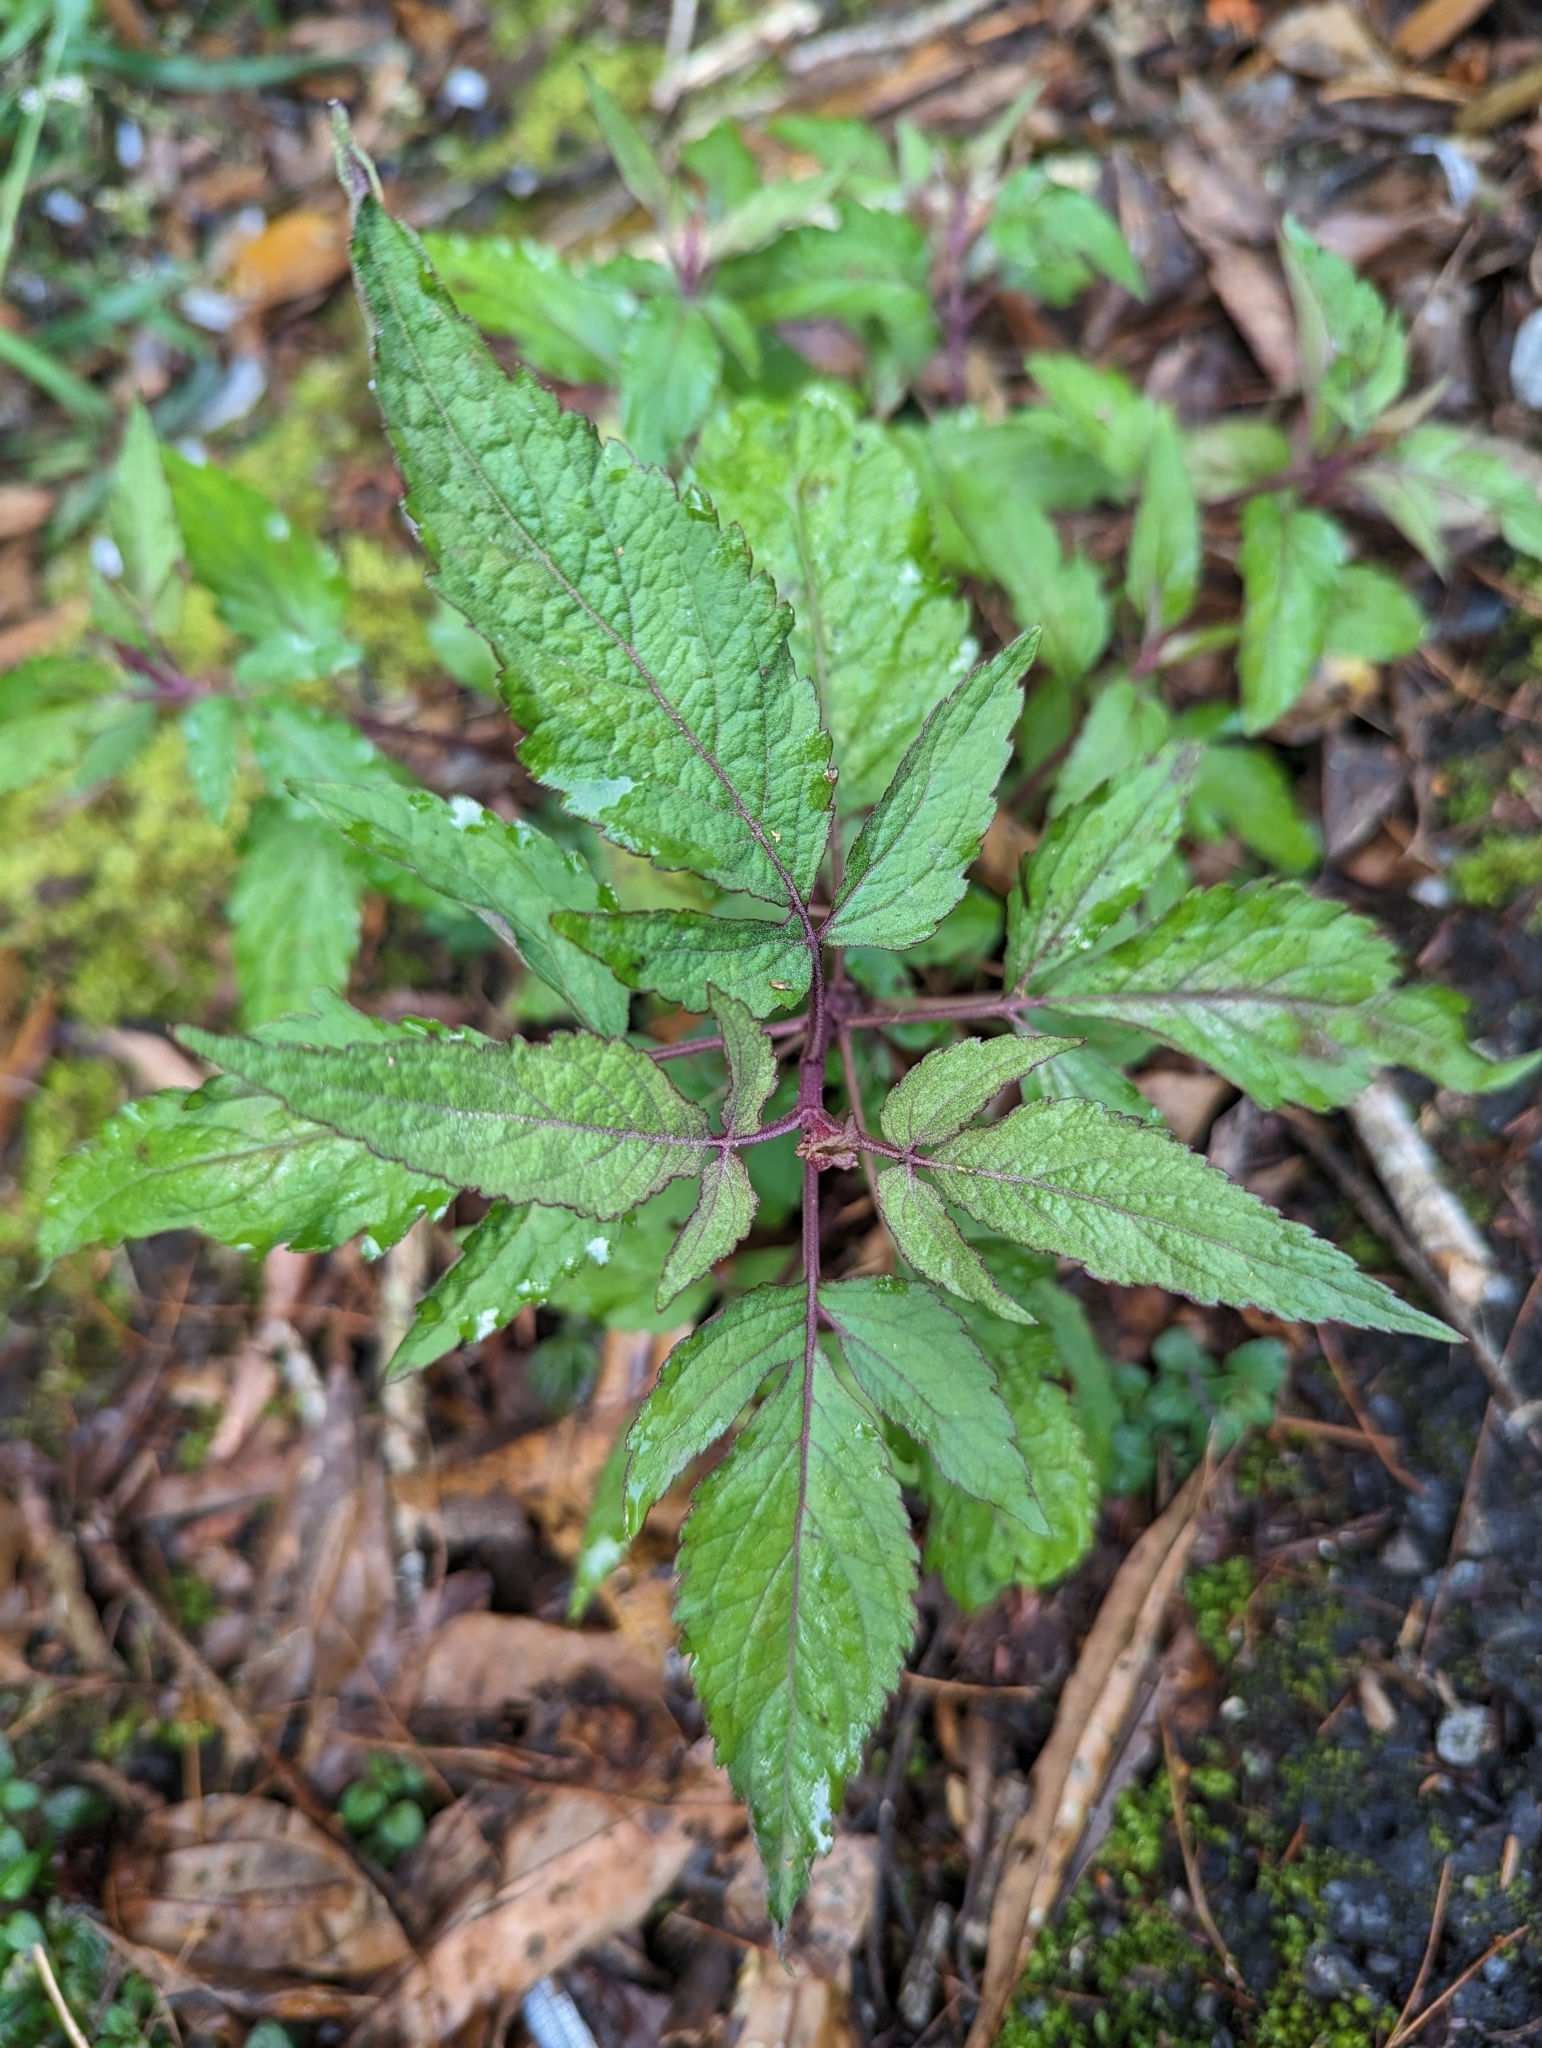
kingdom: Plantae
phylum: Tracheophyta
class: Magnoliopsida
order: Asterales
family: Asteraceae
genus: Eupatorium
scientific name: Eupatorium formosanum
